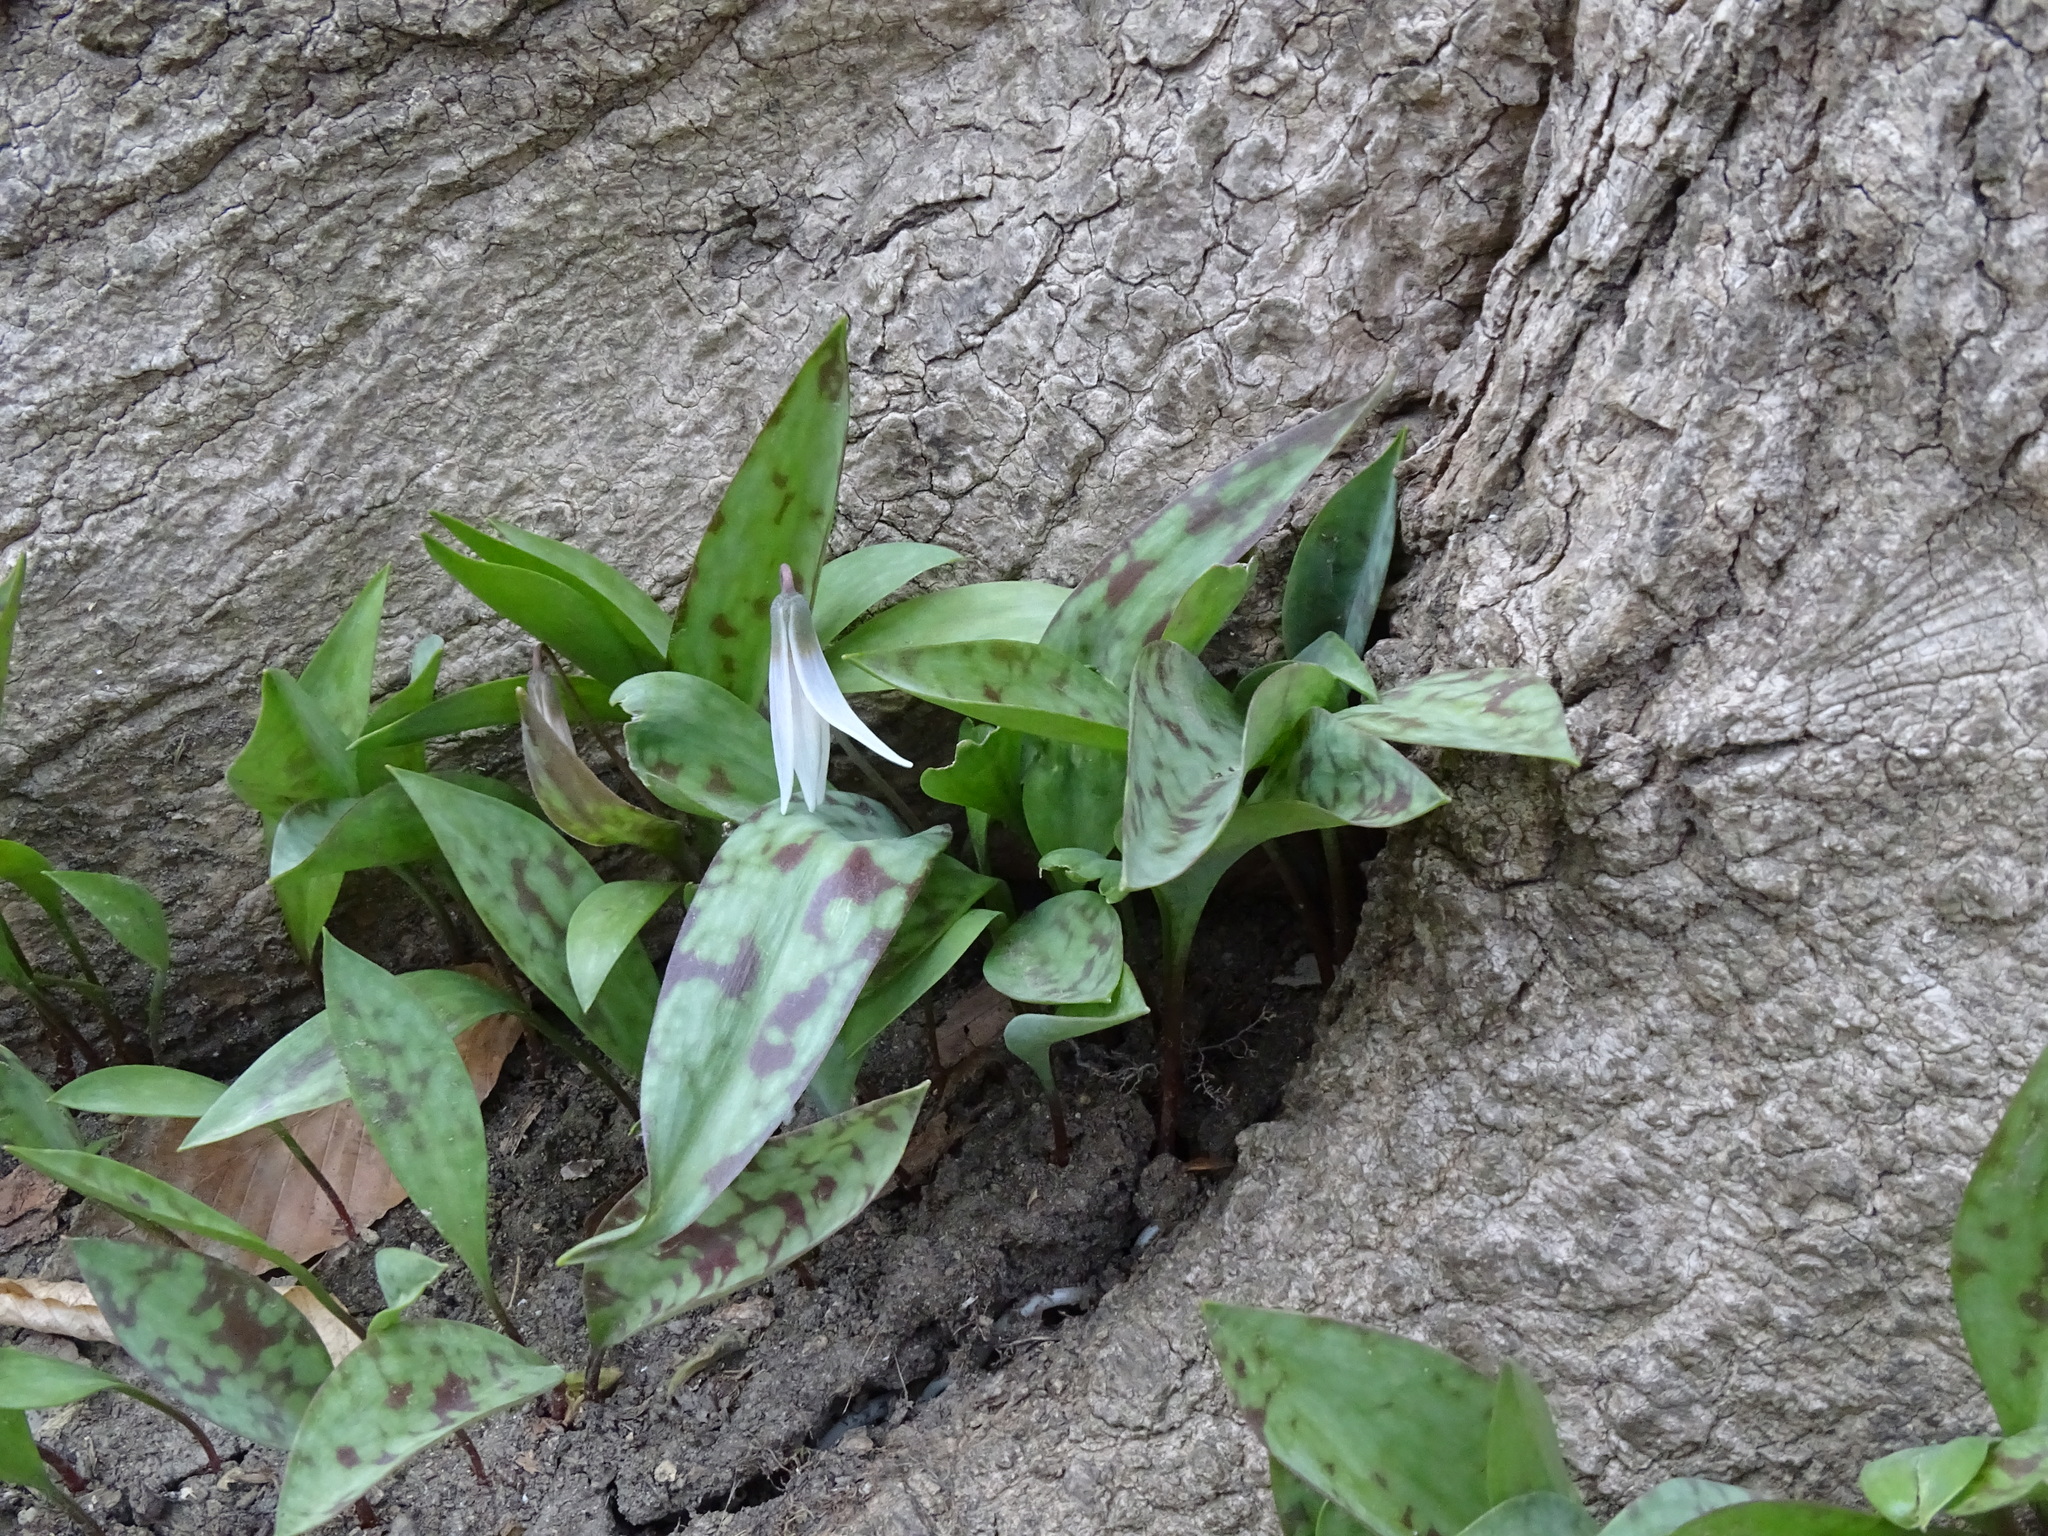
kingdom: Plantae
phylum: Tracheophyta
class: Liliopsida
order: Liliales
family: Liliaceae
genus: Erythronium
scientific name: Erythronium albidum
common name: White trout-lily
